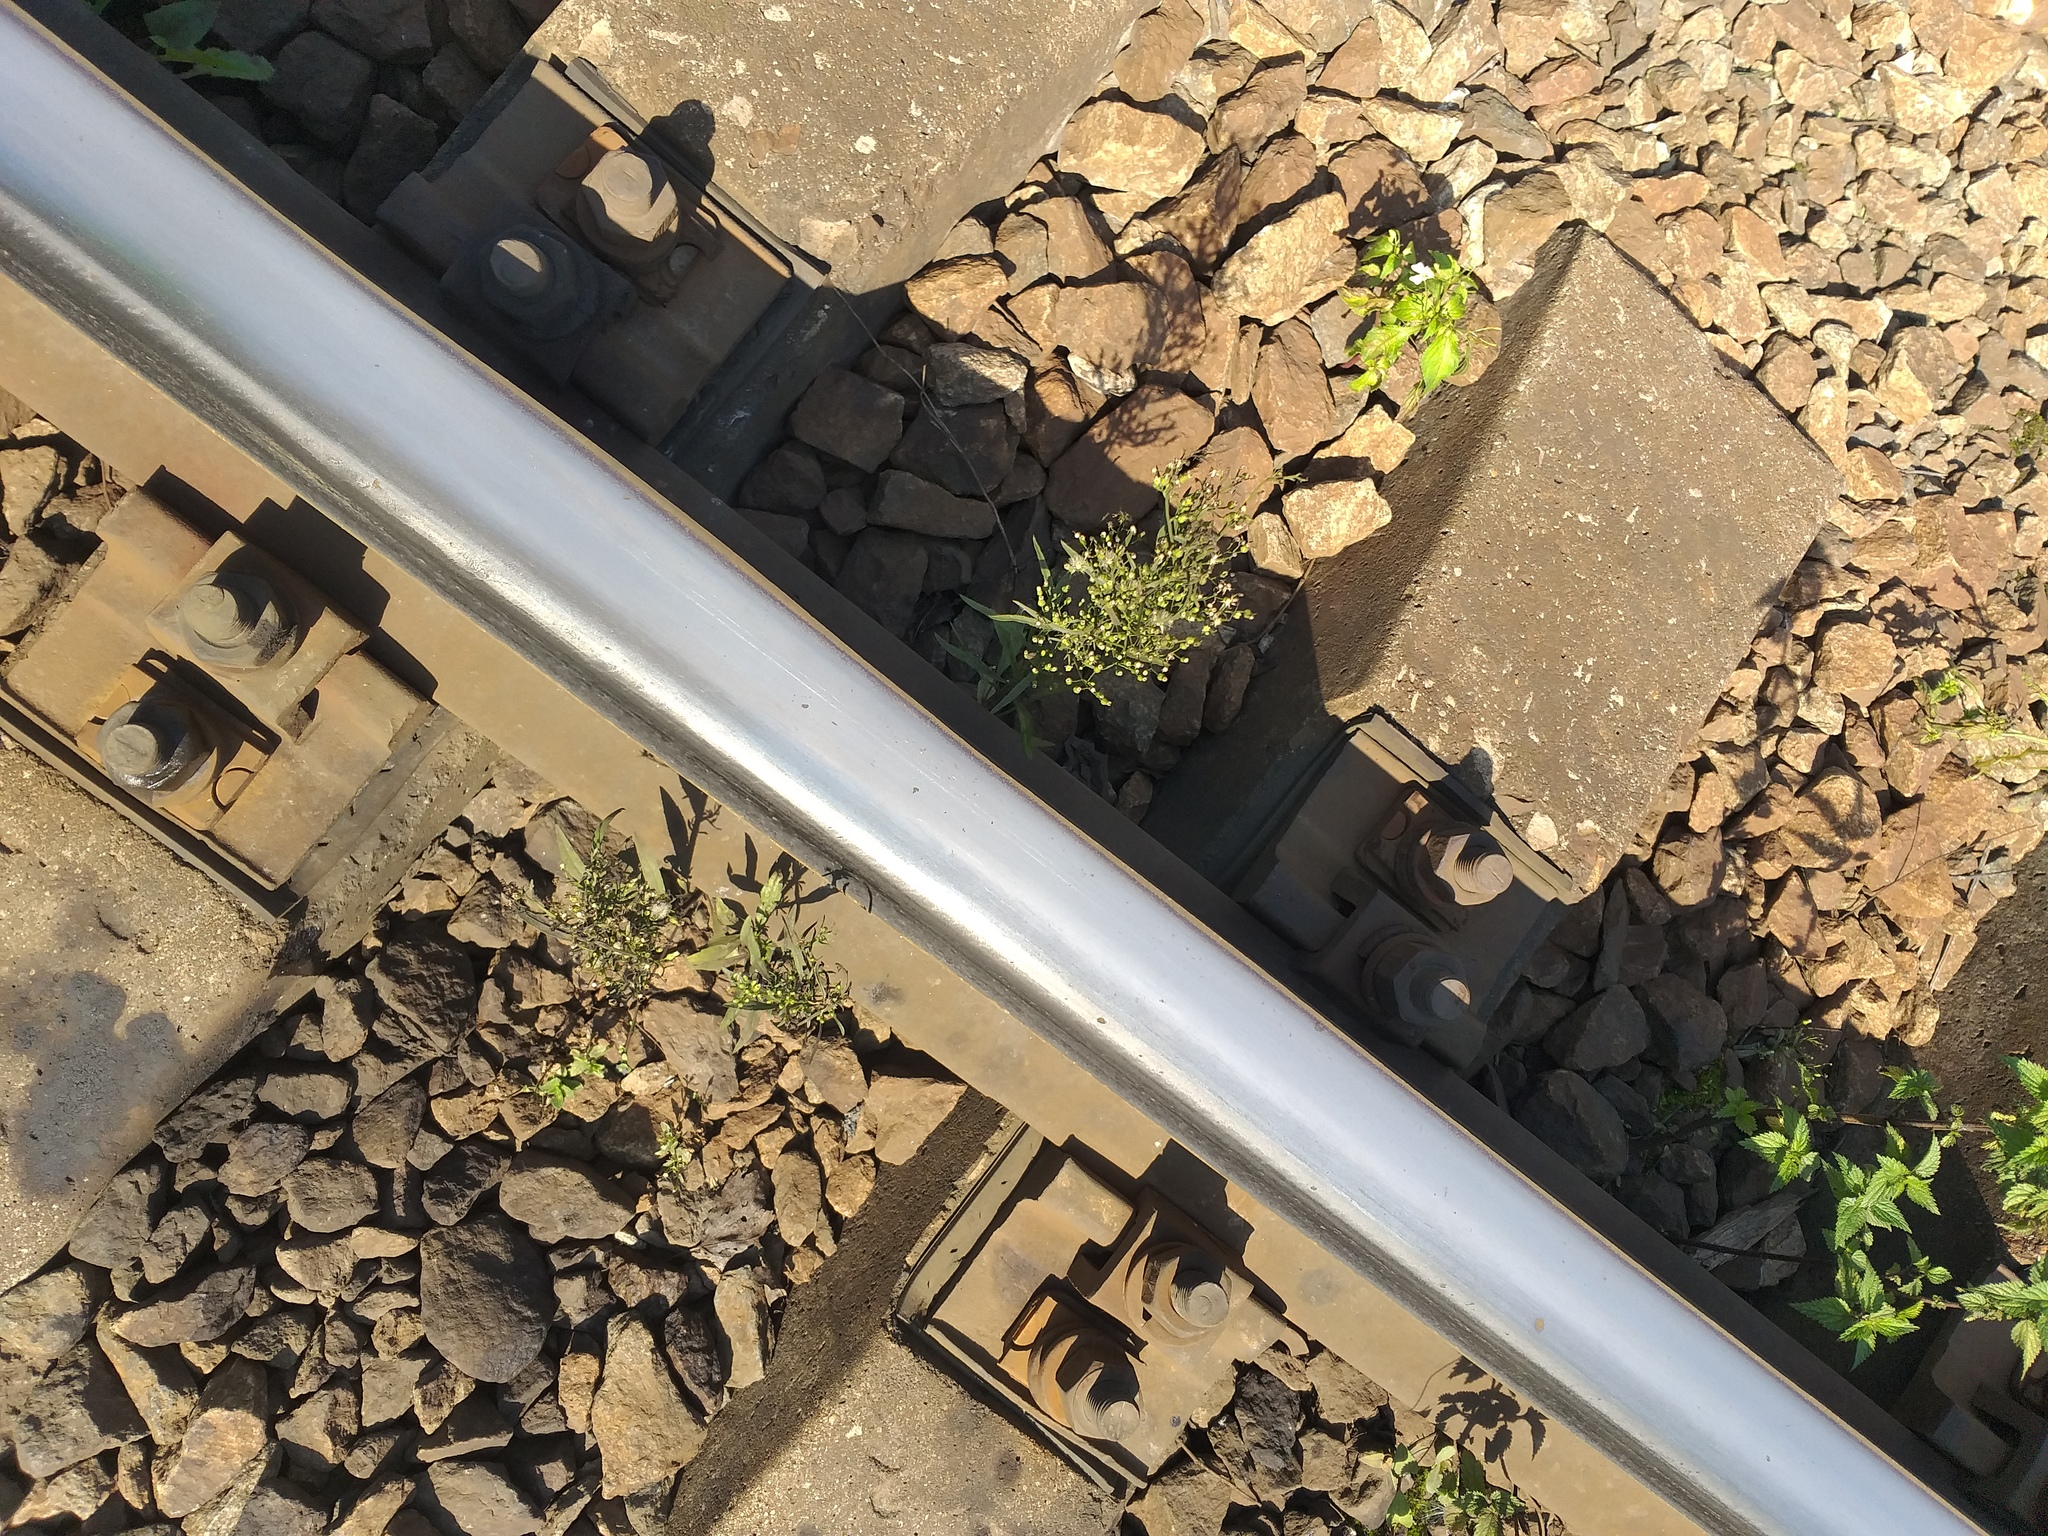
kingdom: Plantae
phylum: Tracheophyta
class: Magnoliopsida
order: Asterales
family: Asteraceae
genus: Erigeron
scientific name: Erigeron canadensis
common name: Canadian fleabane
